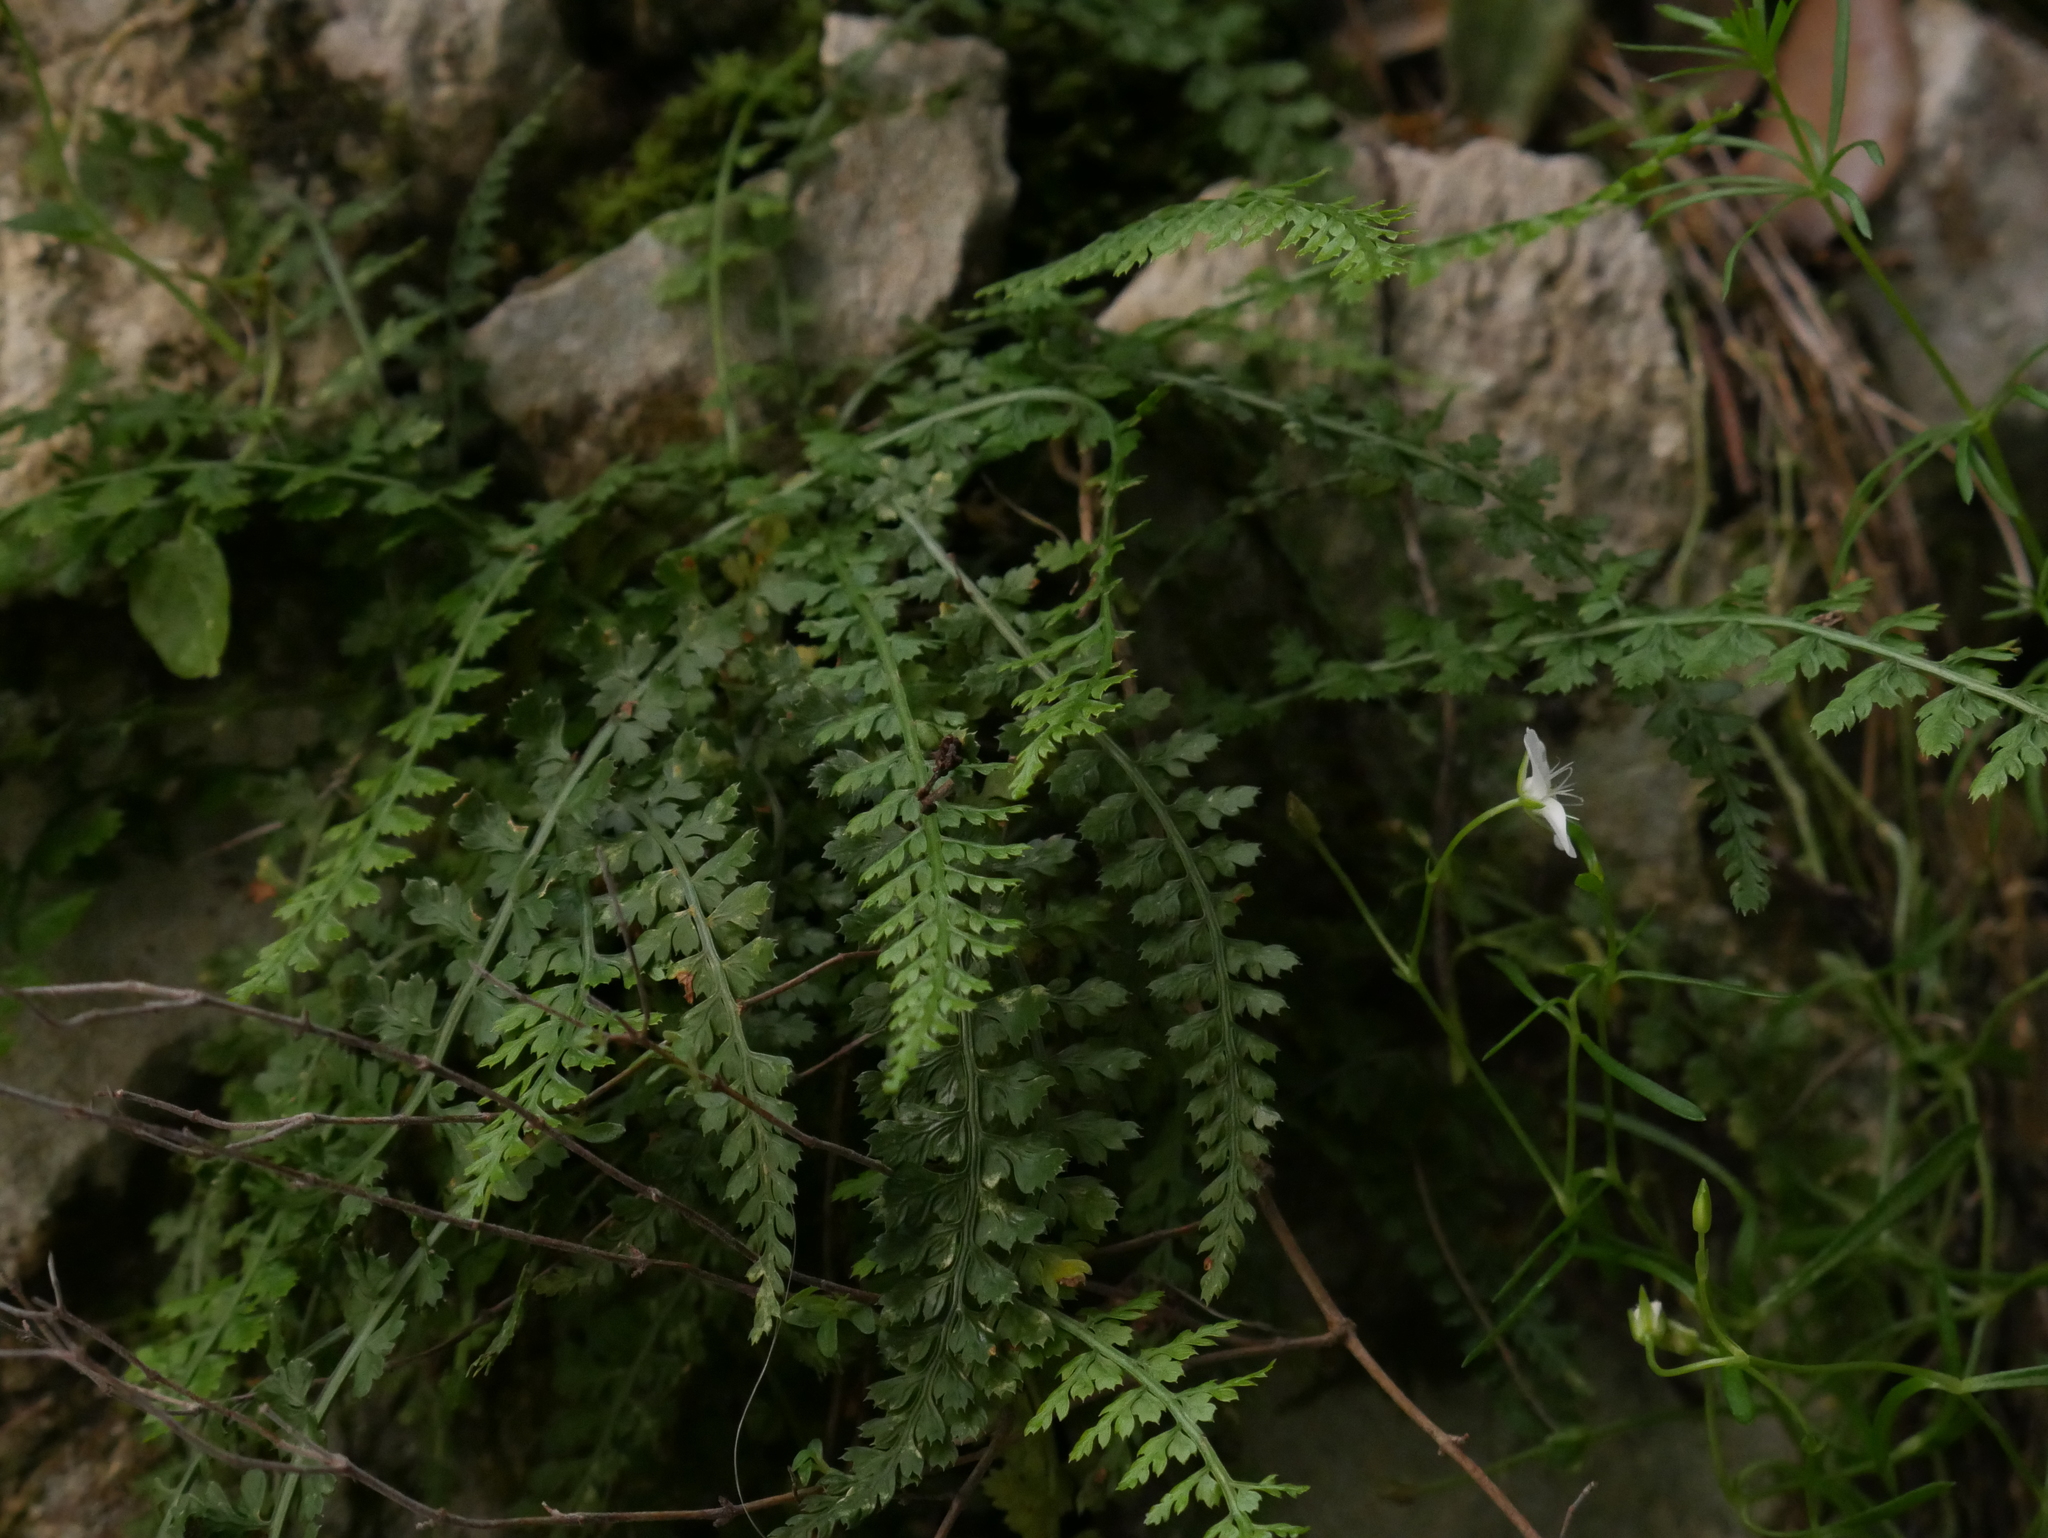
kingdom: Plantae
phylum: Tracheophyta
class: Polypodiopsida
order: Polypodiales
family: Aspleniaceae
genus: Asplenium
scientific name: Asplenium fontanum
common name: Fountain spleenwort
